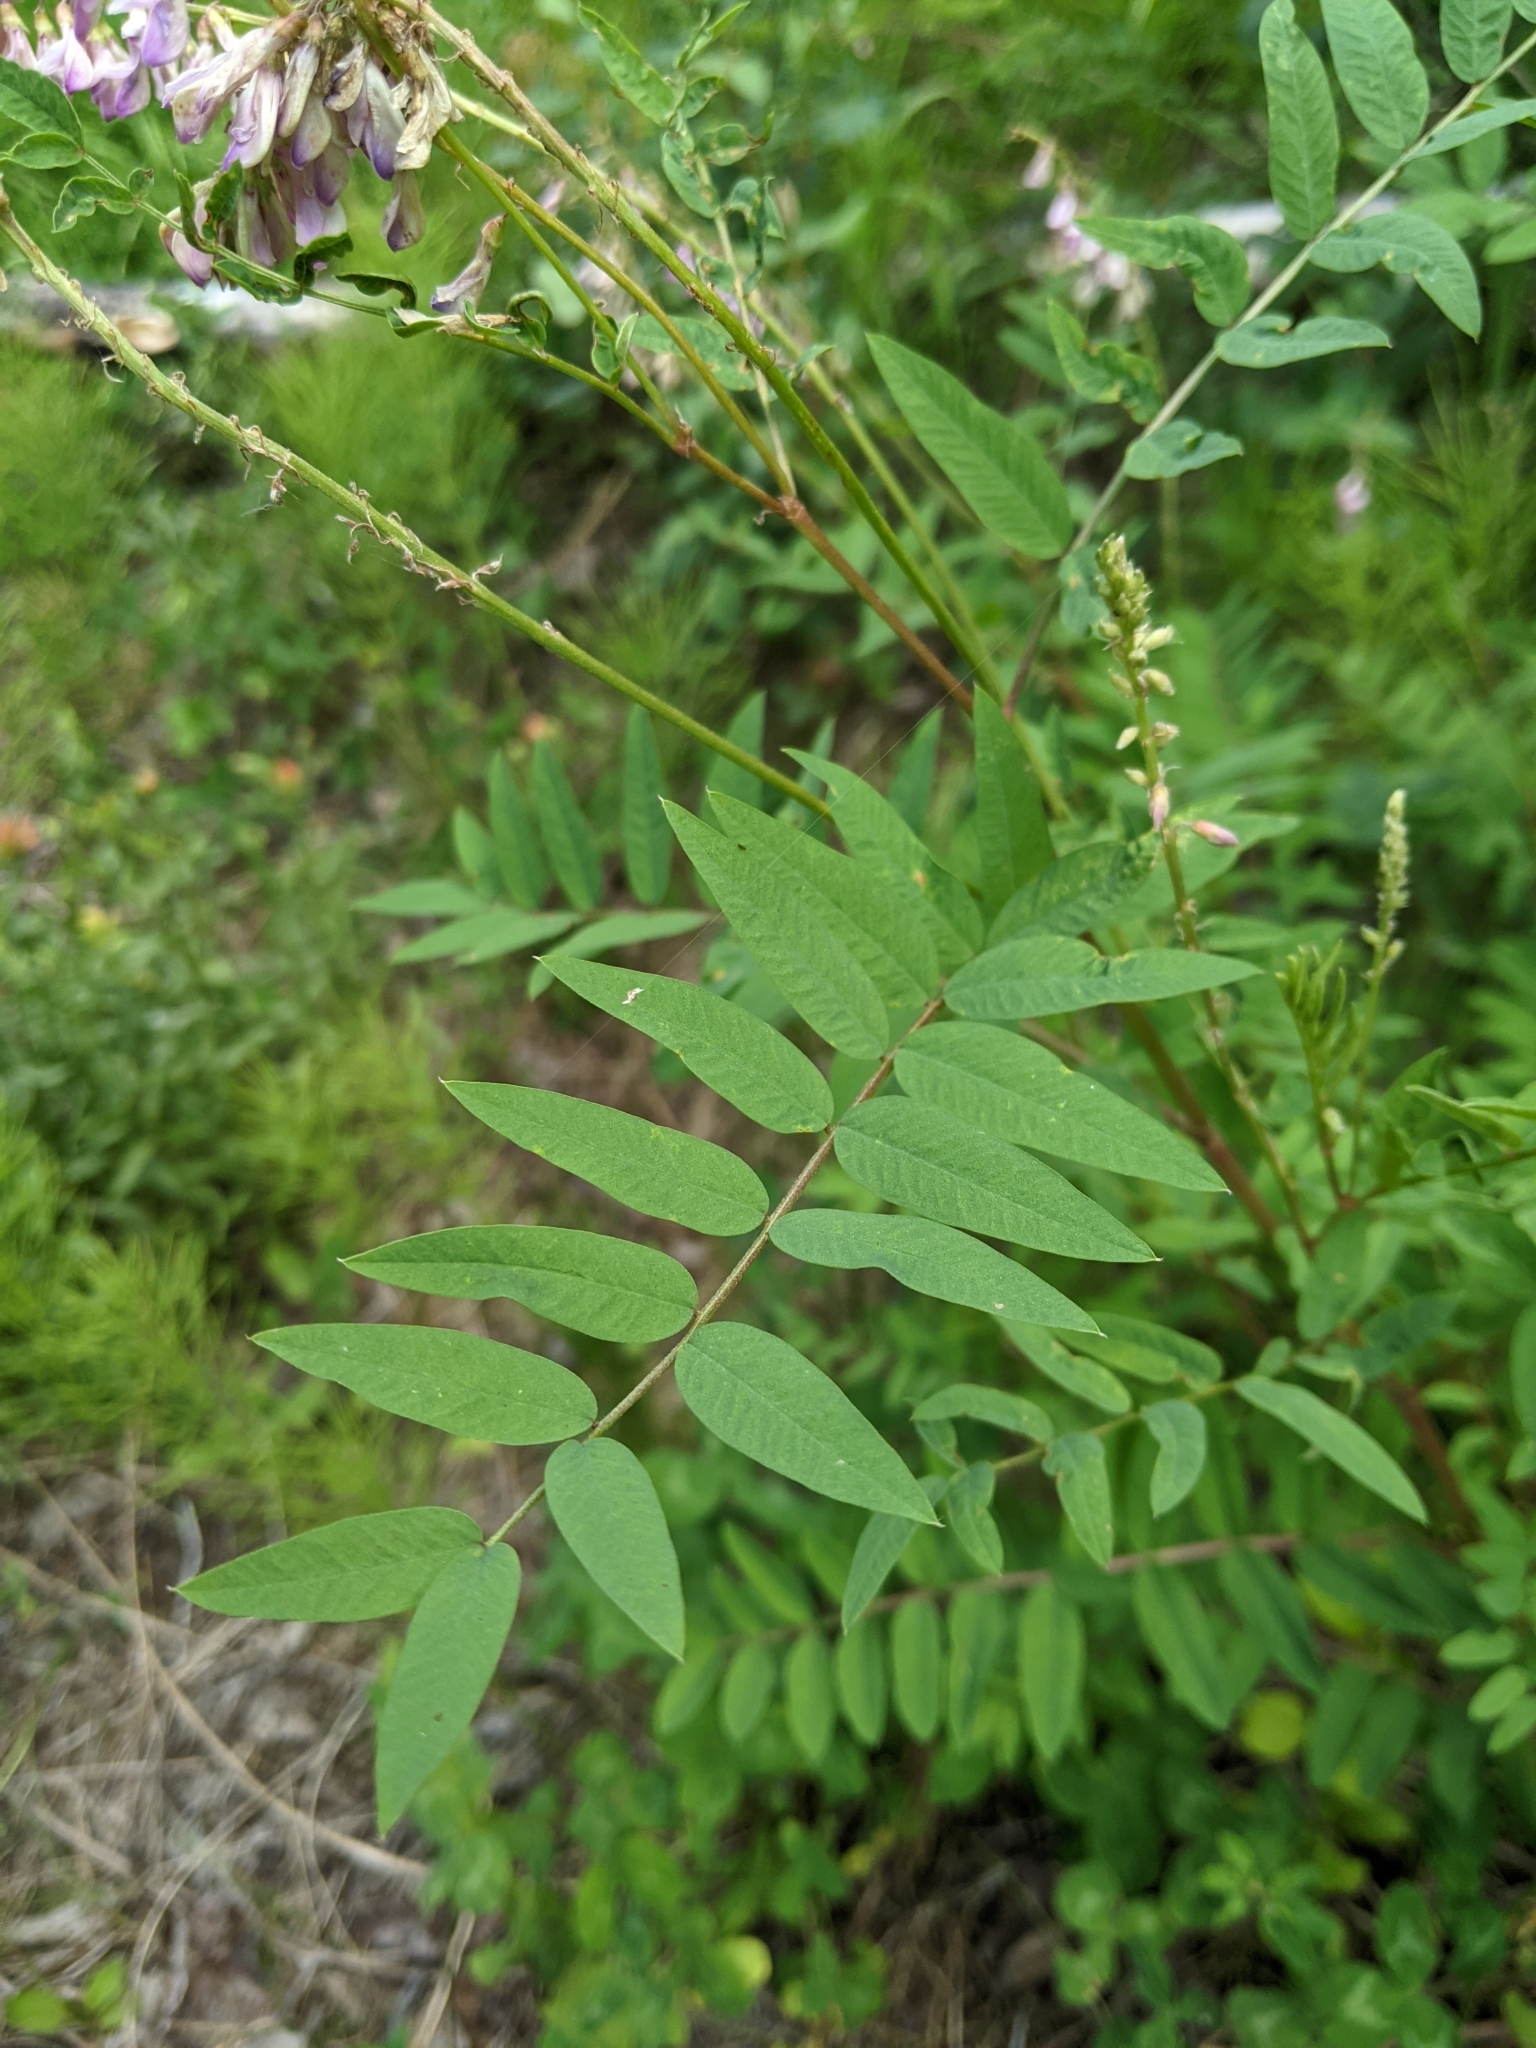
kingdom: Plantae
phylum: Tracheophyta
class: Magnoliopsida
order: Fabales
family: Fabaceae
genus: Hedysarum
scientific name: Hedysarum alpinum
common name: Alpine sweet-vetch
